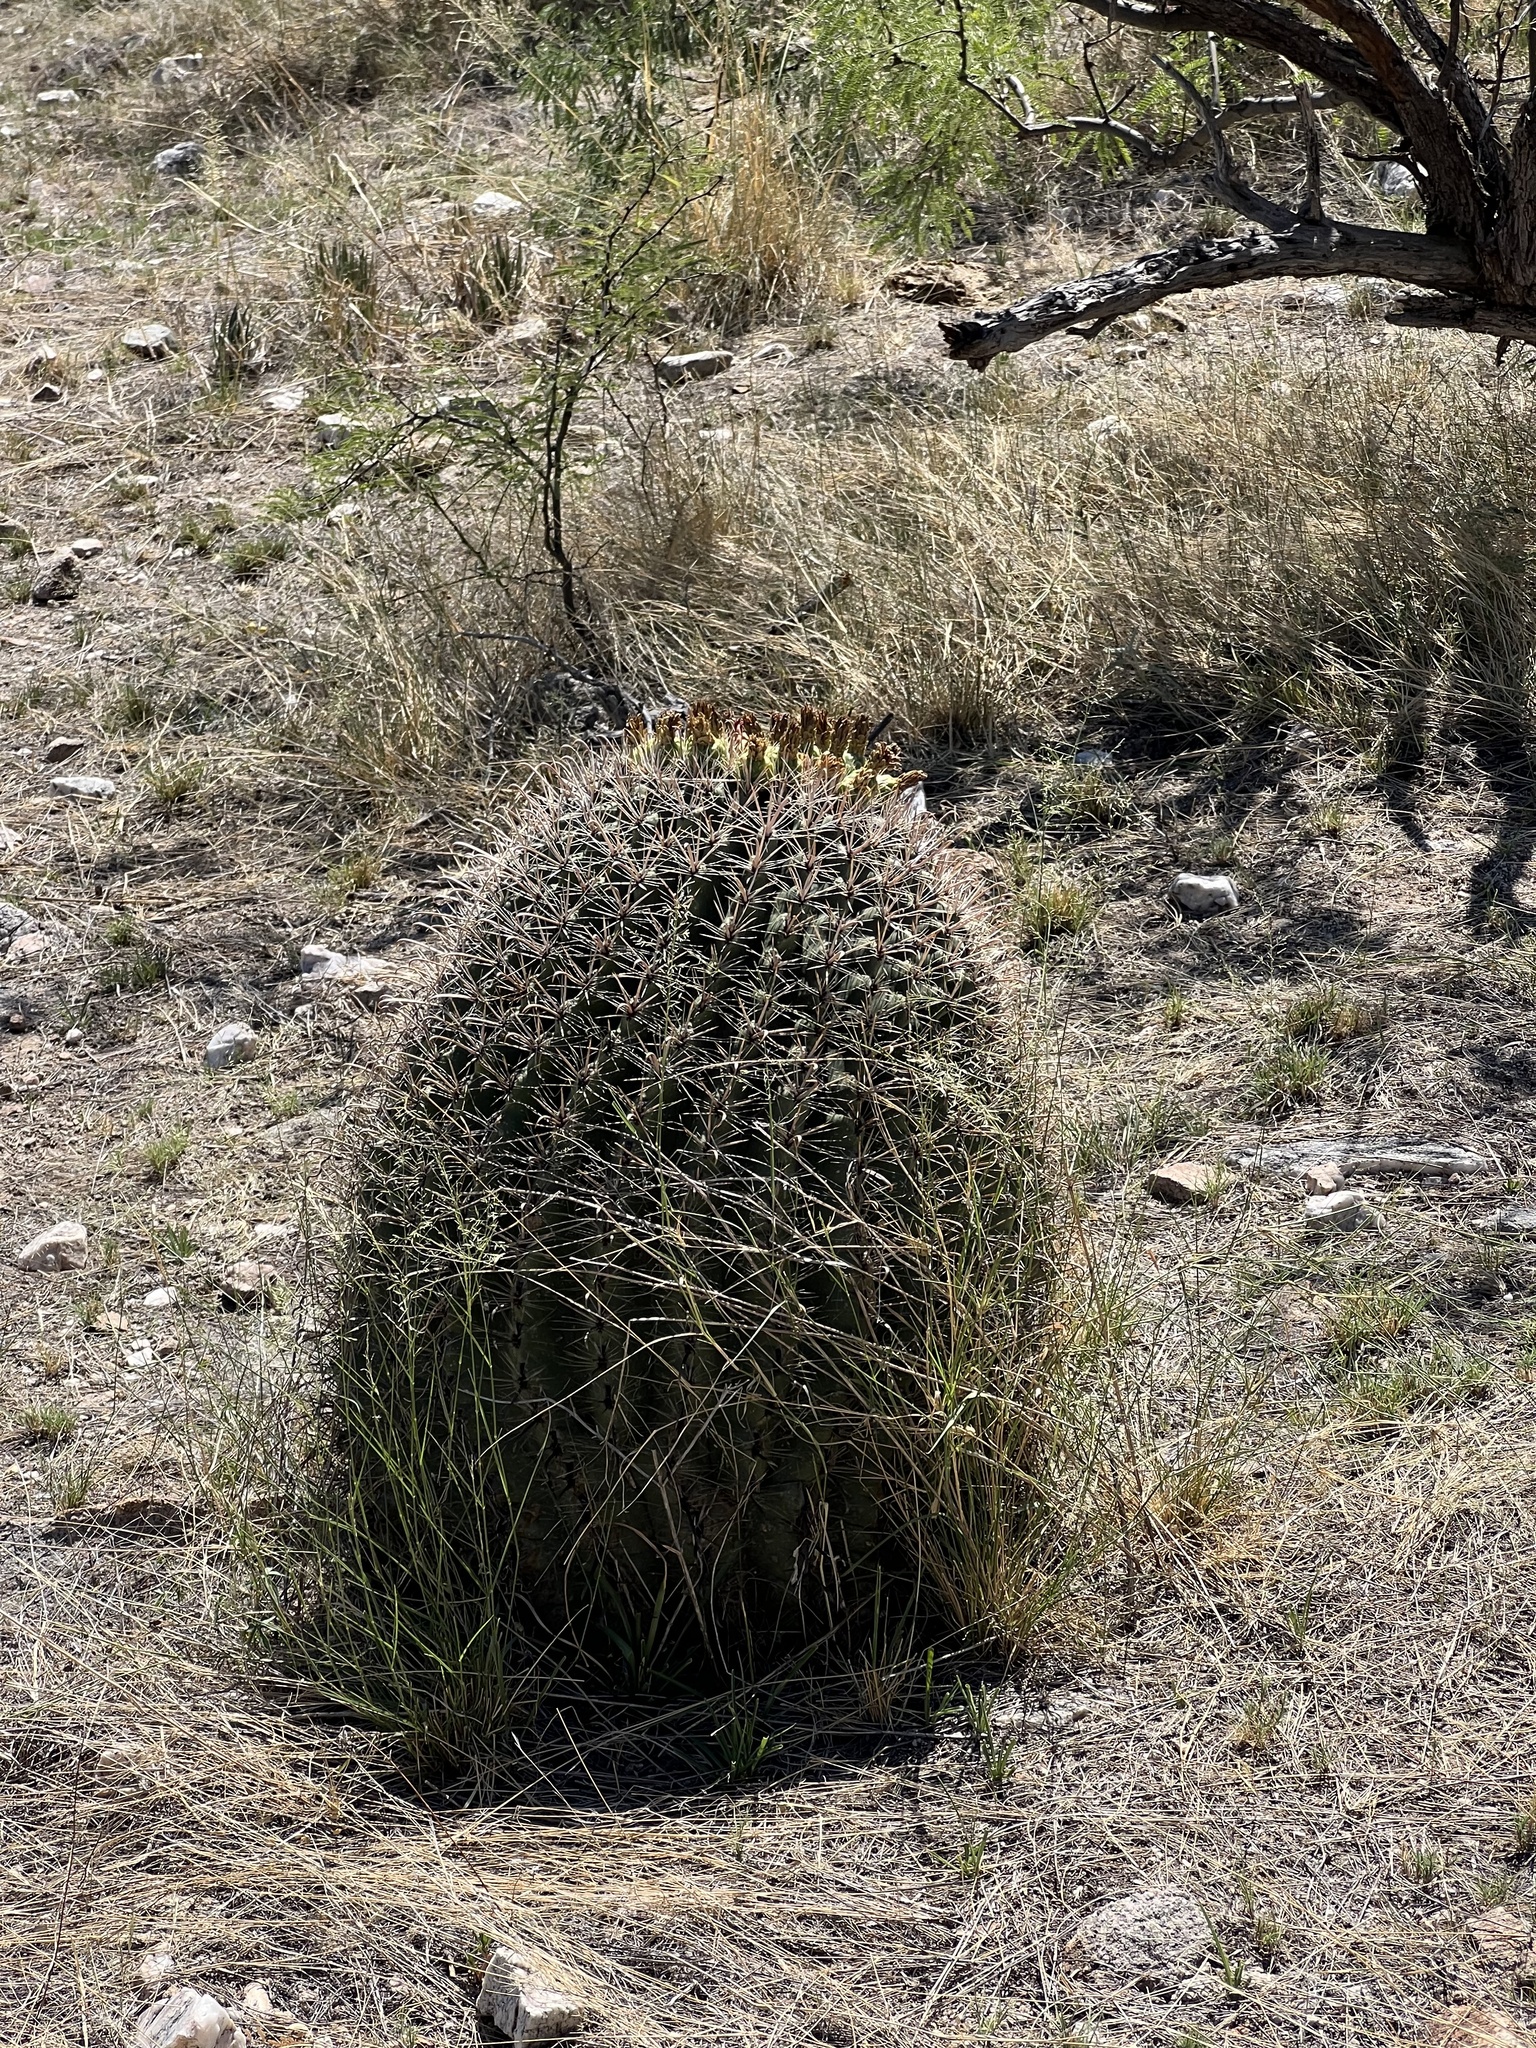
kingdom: Plantae
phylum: Tracheophyta
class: Magnoliopsida
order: Caryophyllales
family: Cactaceae
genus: Ferocactus
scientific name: Ferocactus wislizeni
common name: Candy barrel cactus
